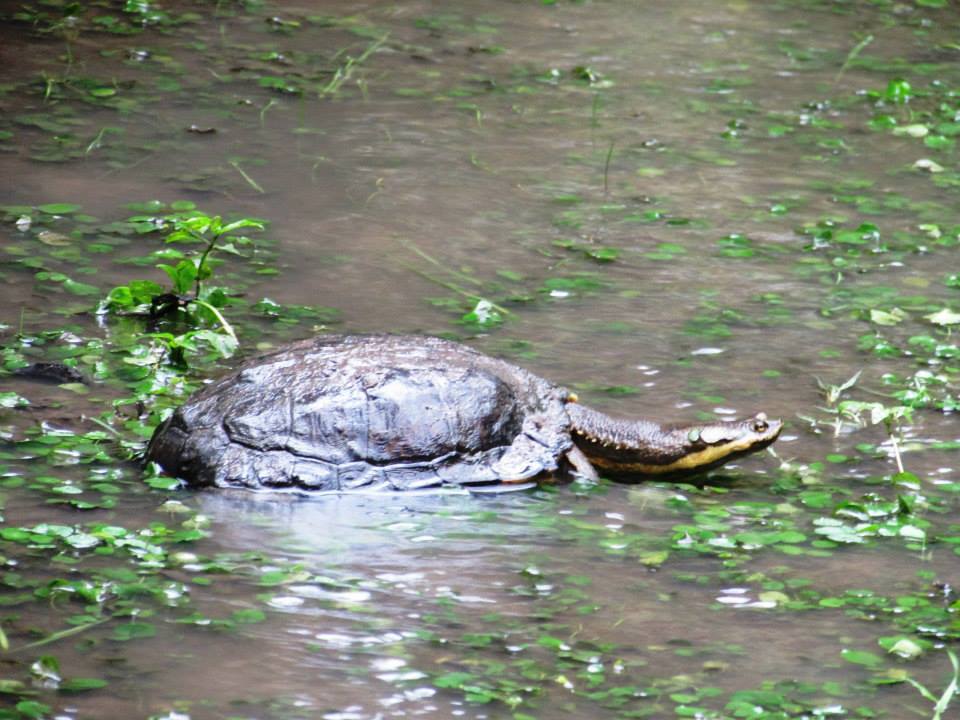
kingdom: Animalia
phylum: Chordata
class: Testudines
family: Chelidae
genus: Hydromedusa
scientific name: Hydromedusa tectifera
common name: Argentine snake-necked turtle
